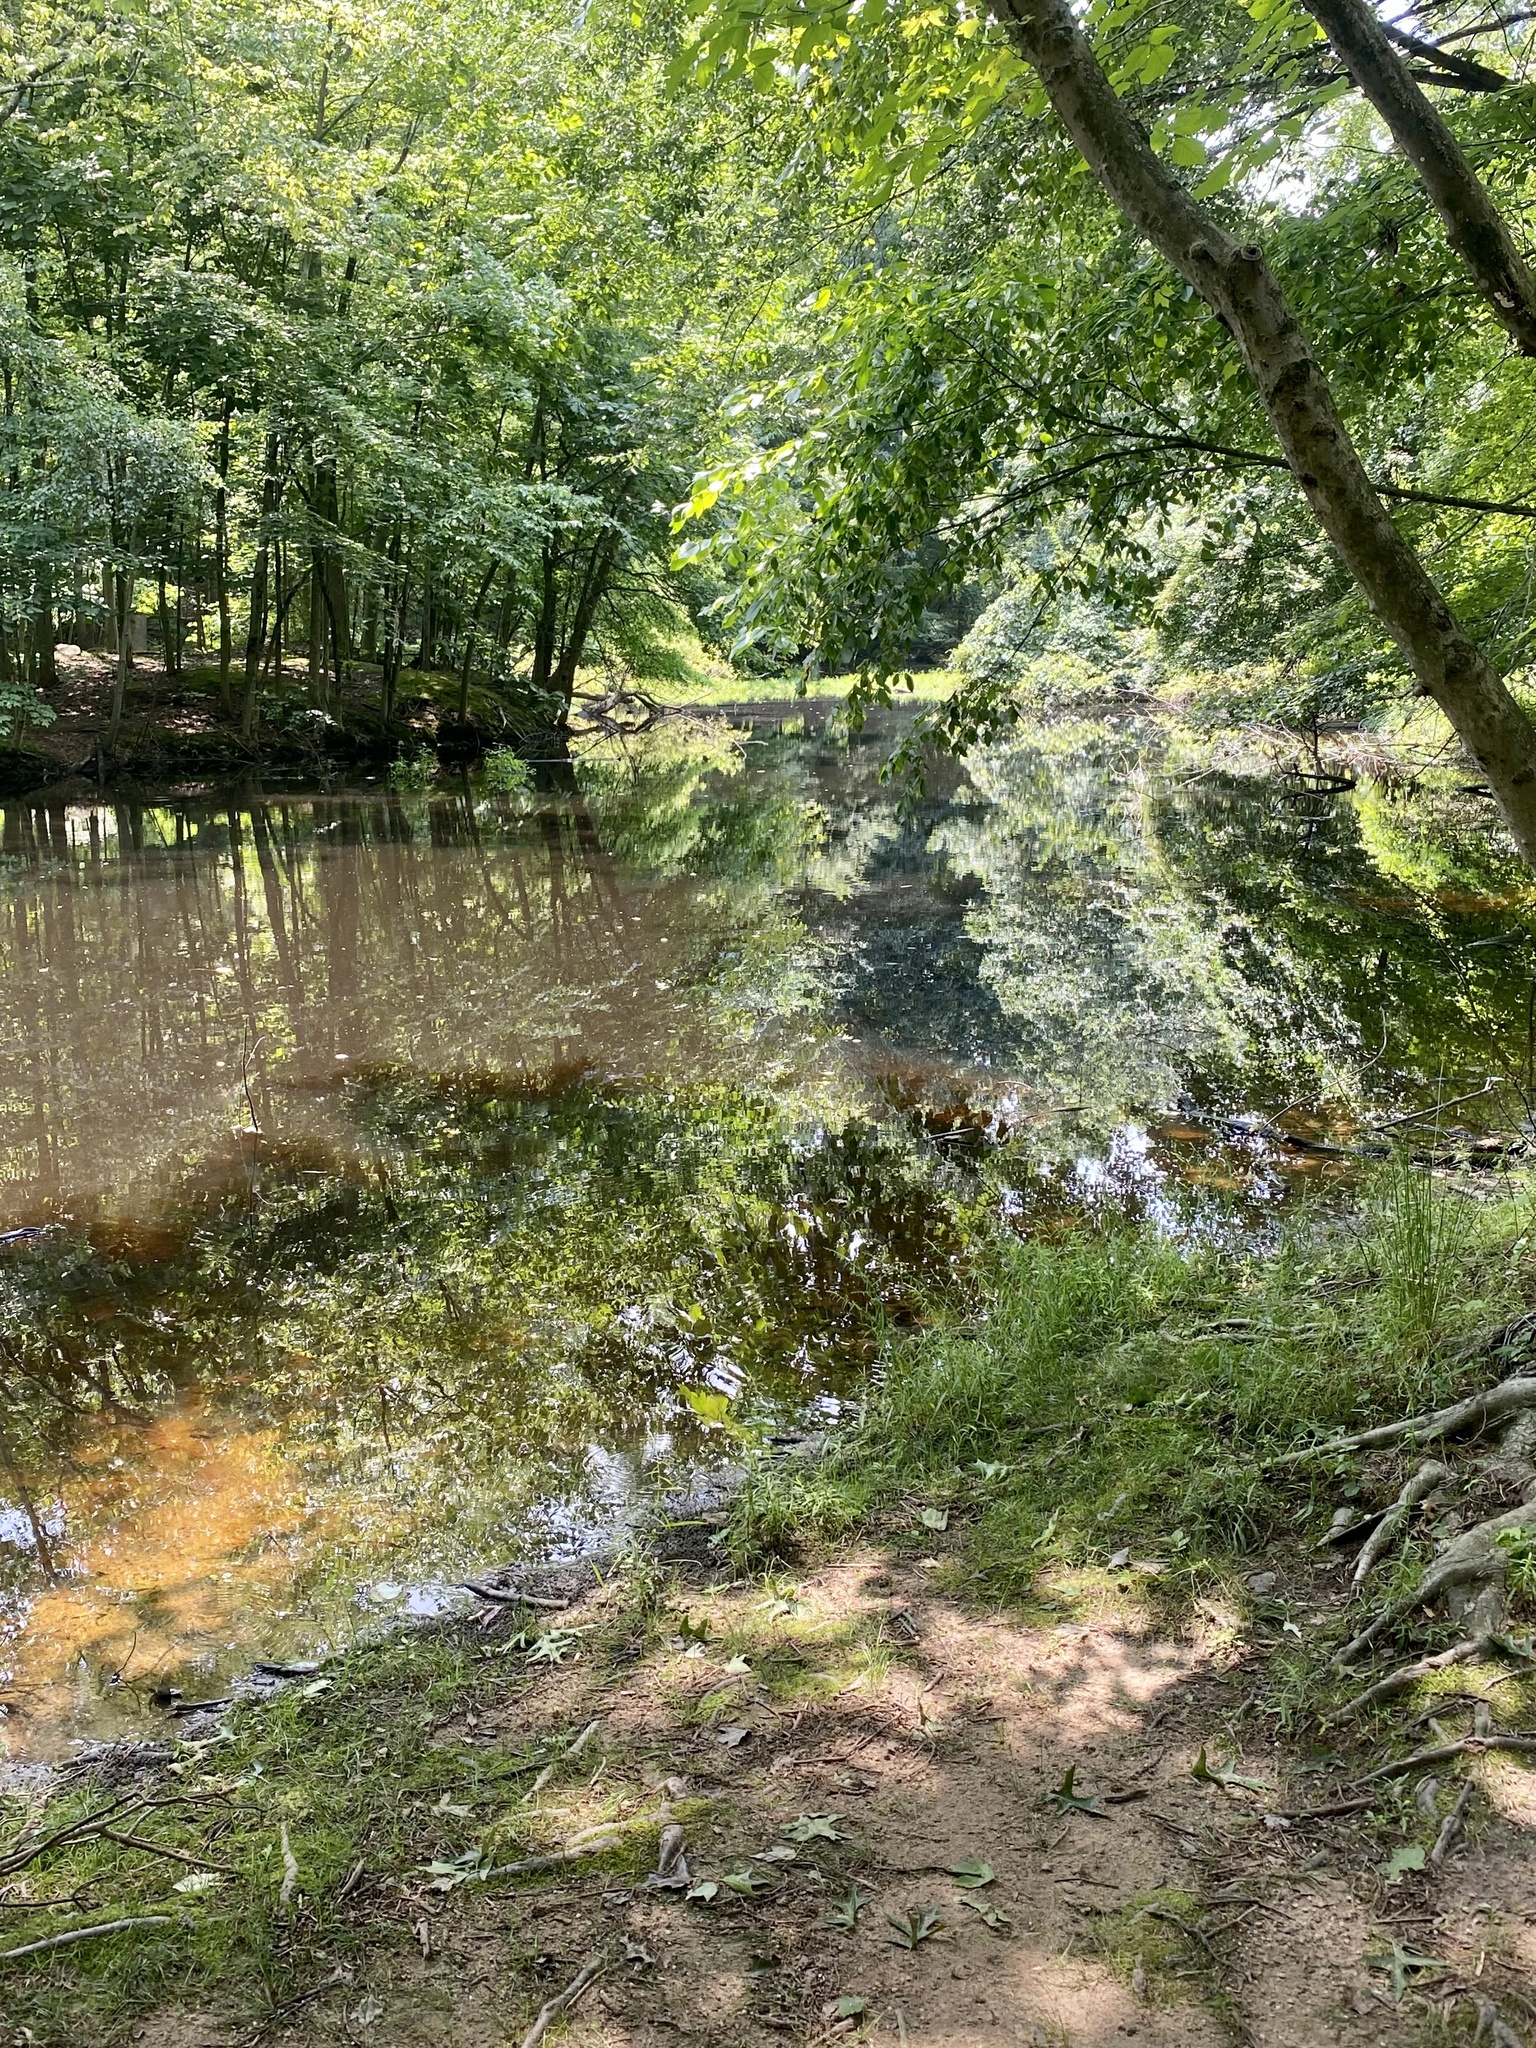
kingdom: Plantae
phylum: Tracheophyta
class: Liliopsida
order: Alismatales
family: Araceae
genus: Peltandra
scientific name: Peltandra virginica
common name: Arrow arum
